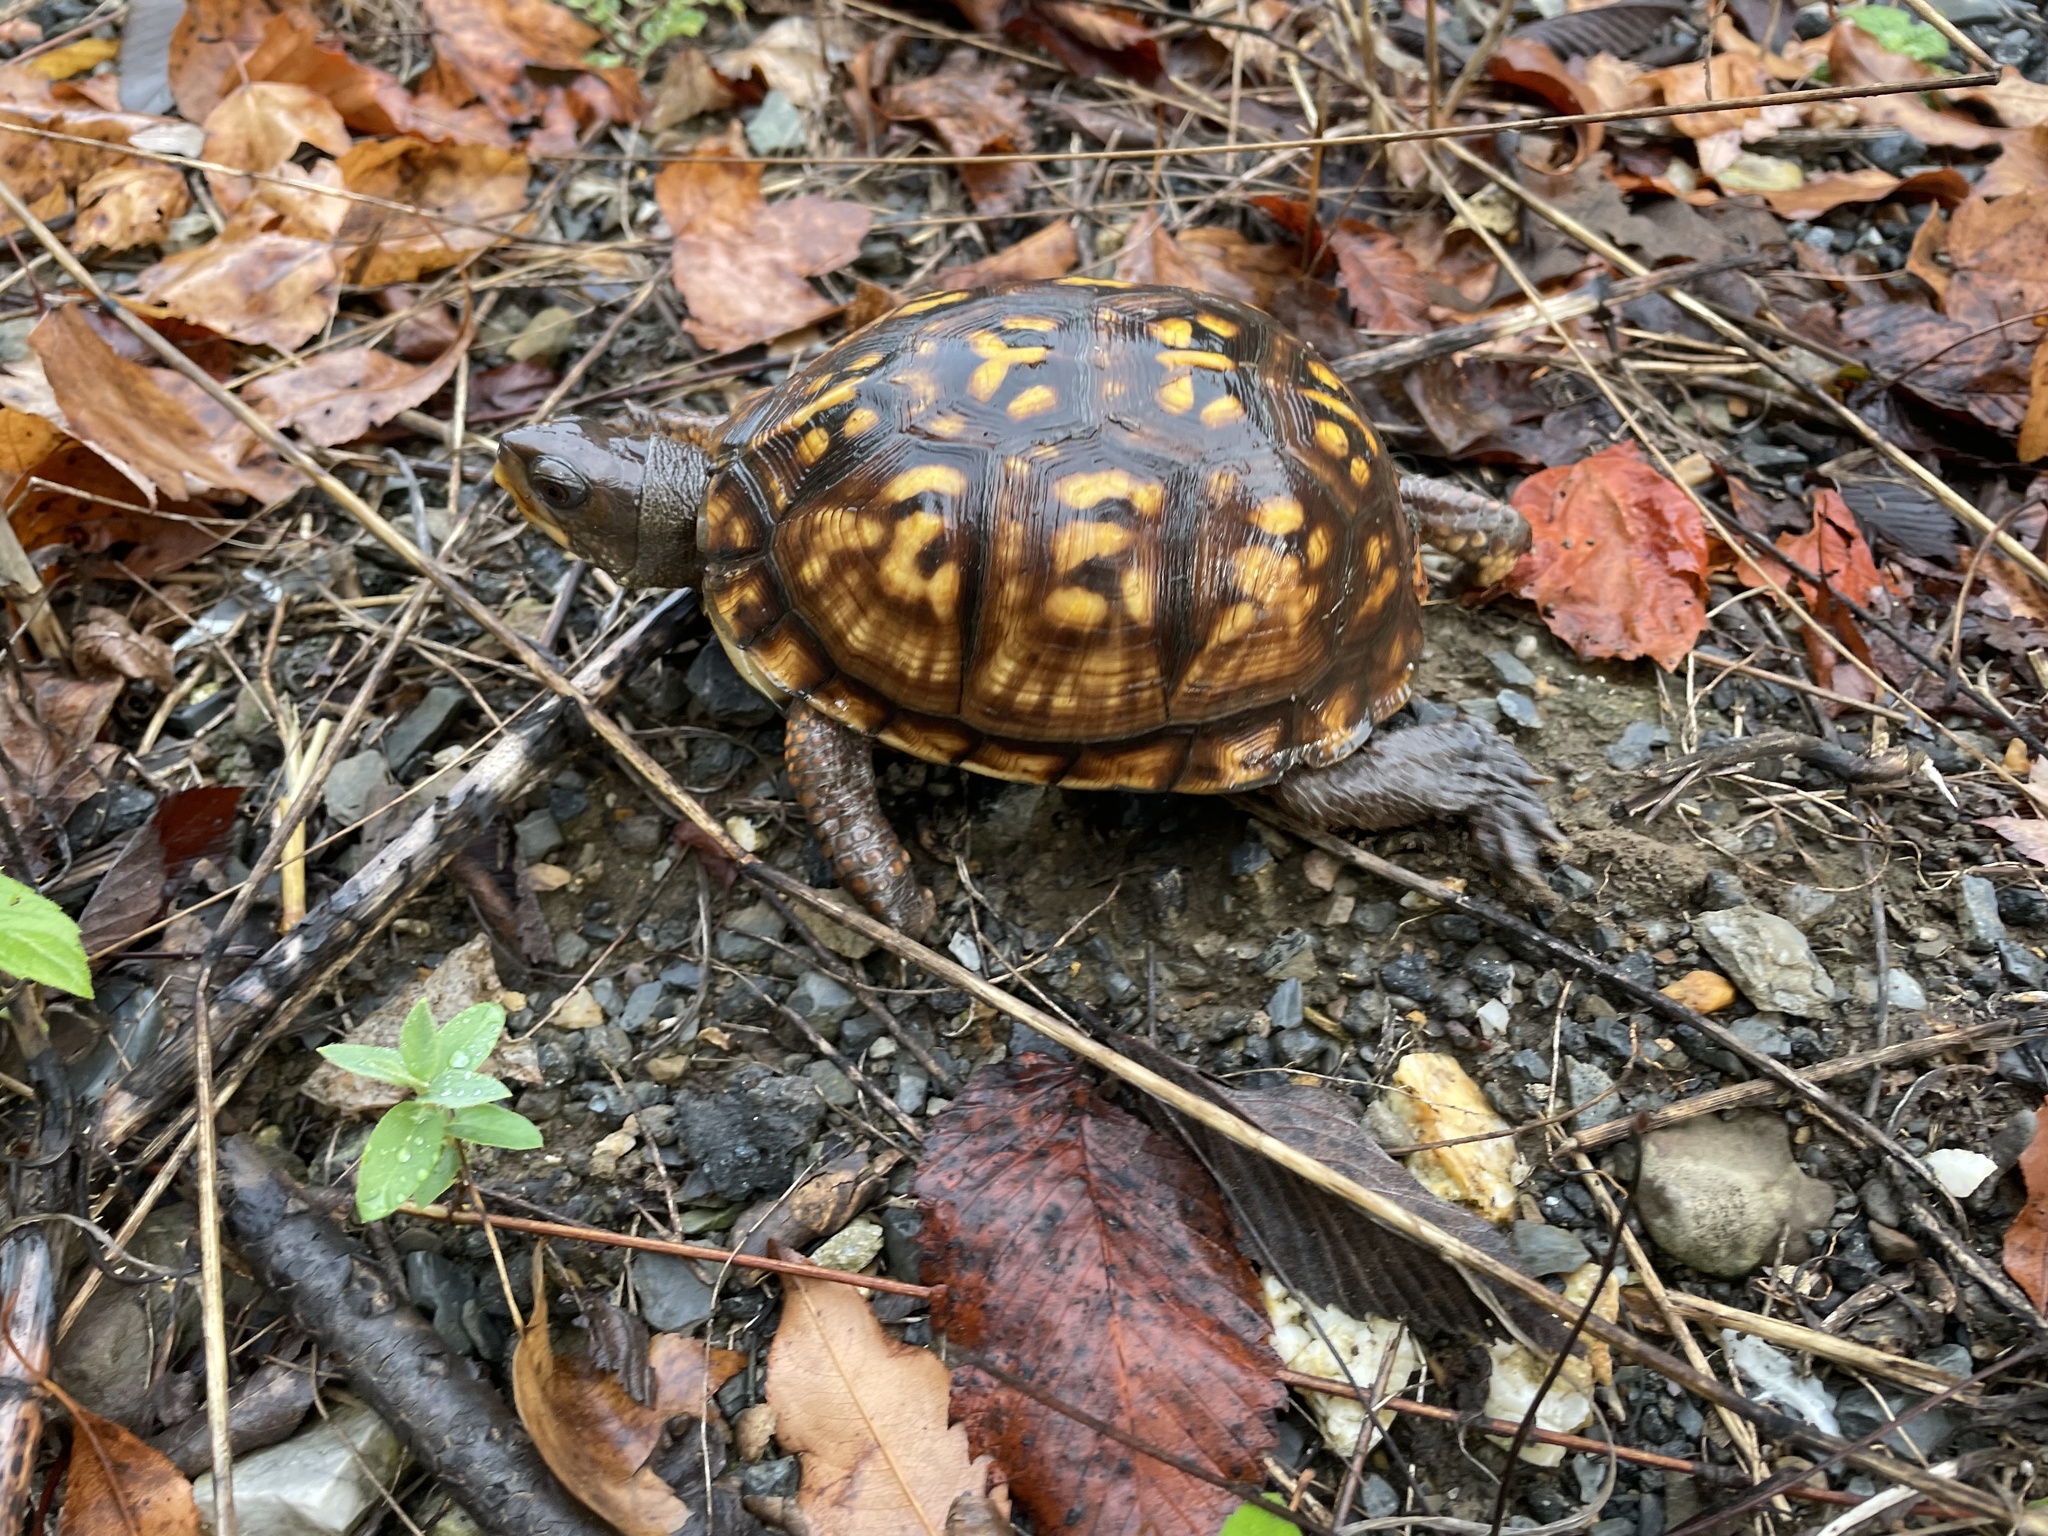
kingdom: Animalia
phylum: Chordata
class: Testudines
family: Emydidae
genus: Terrapene
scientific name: Terrapene carolina
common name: Common box turtle
